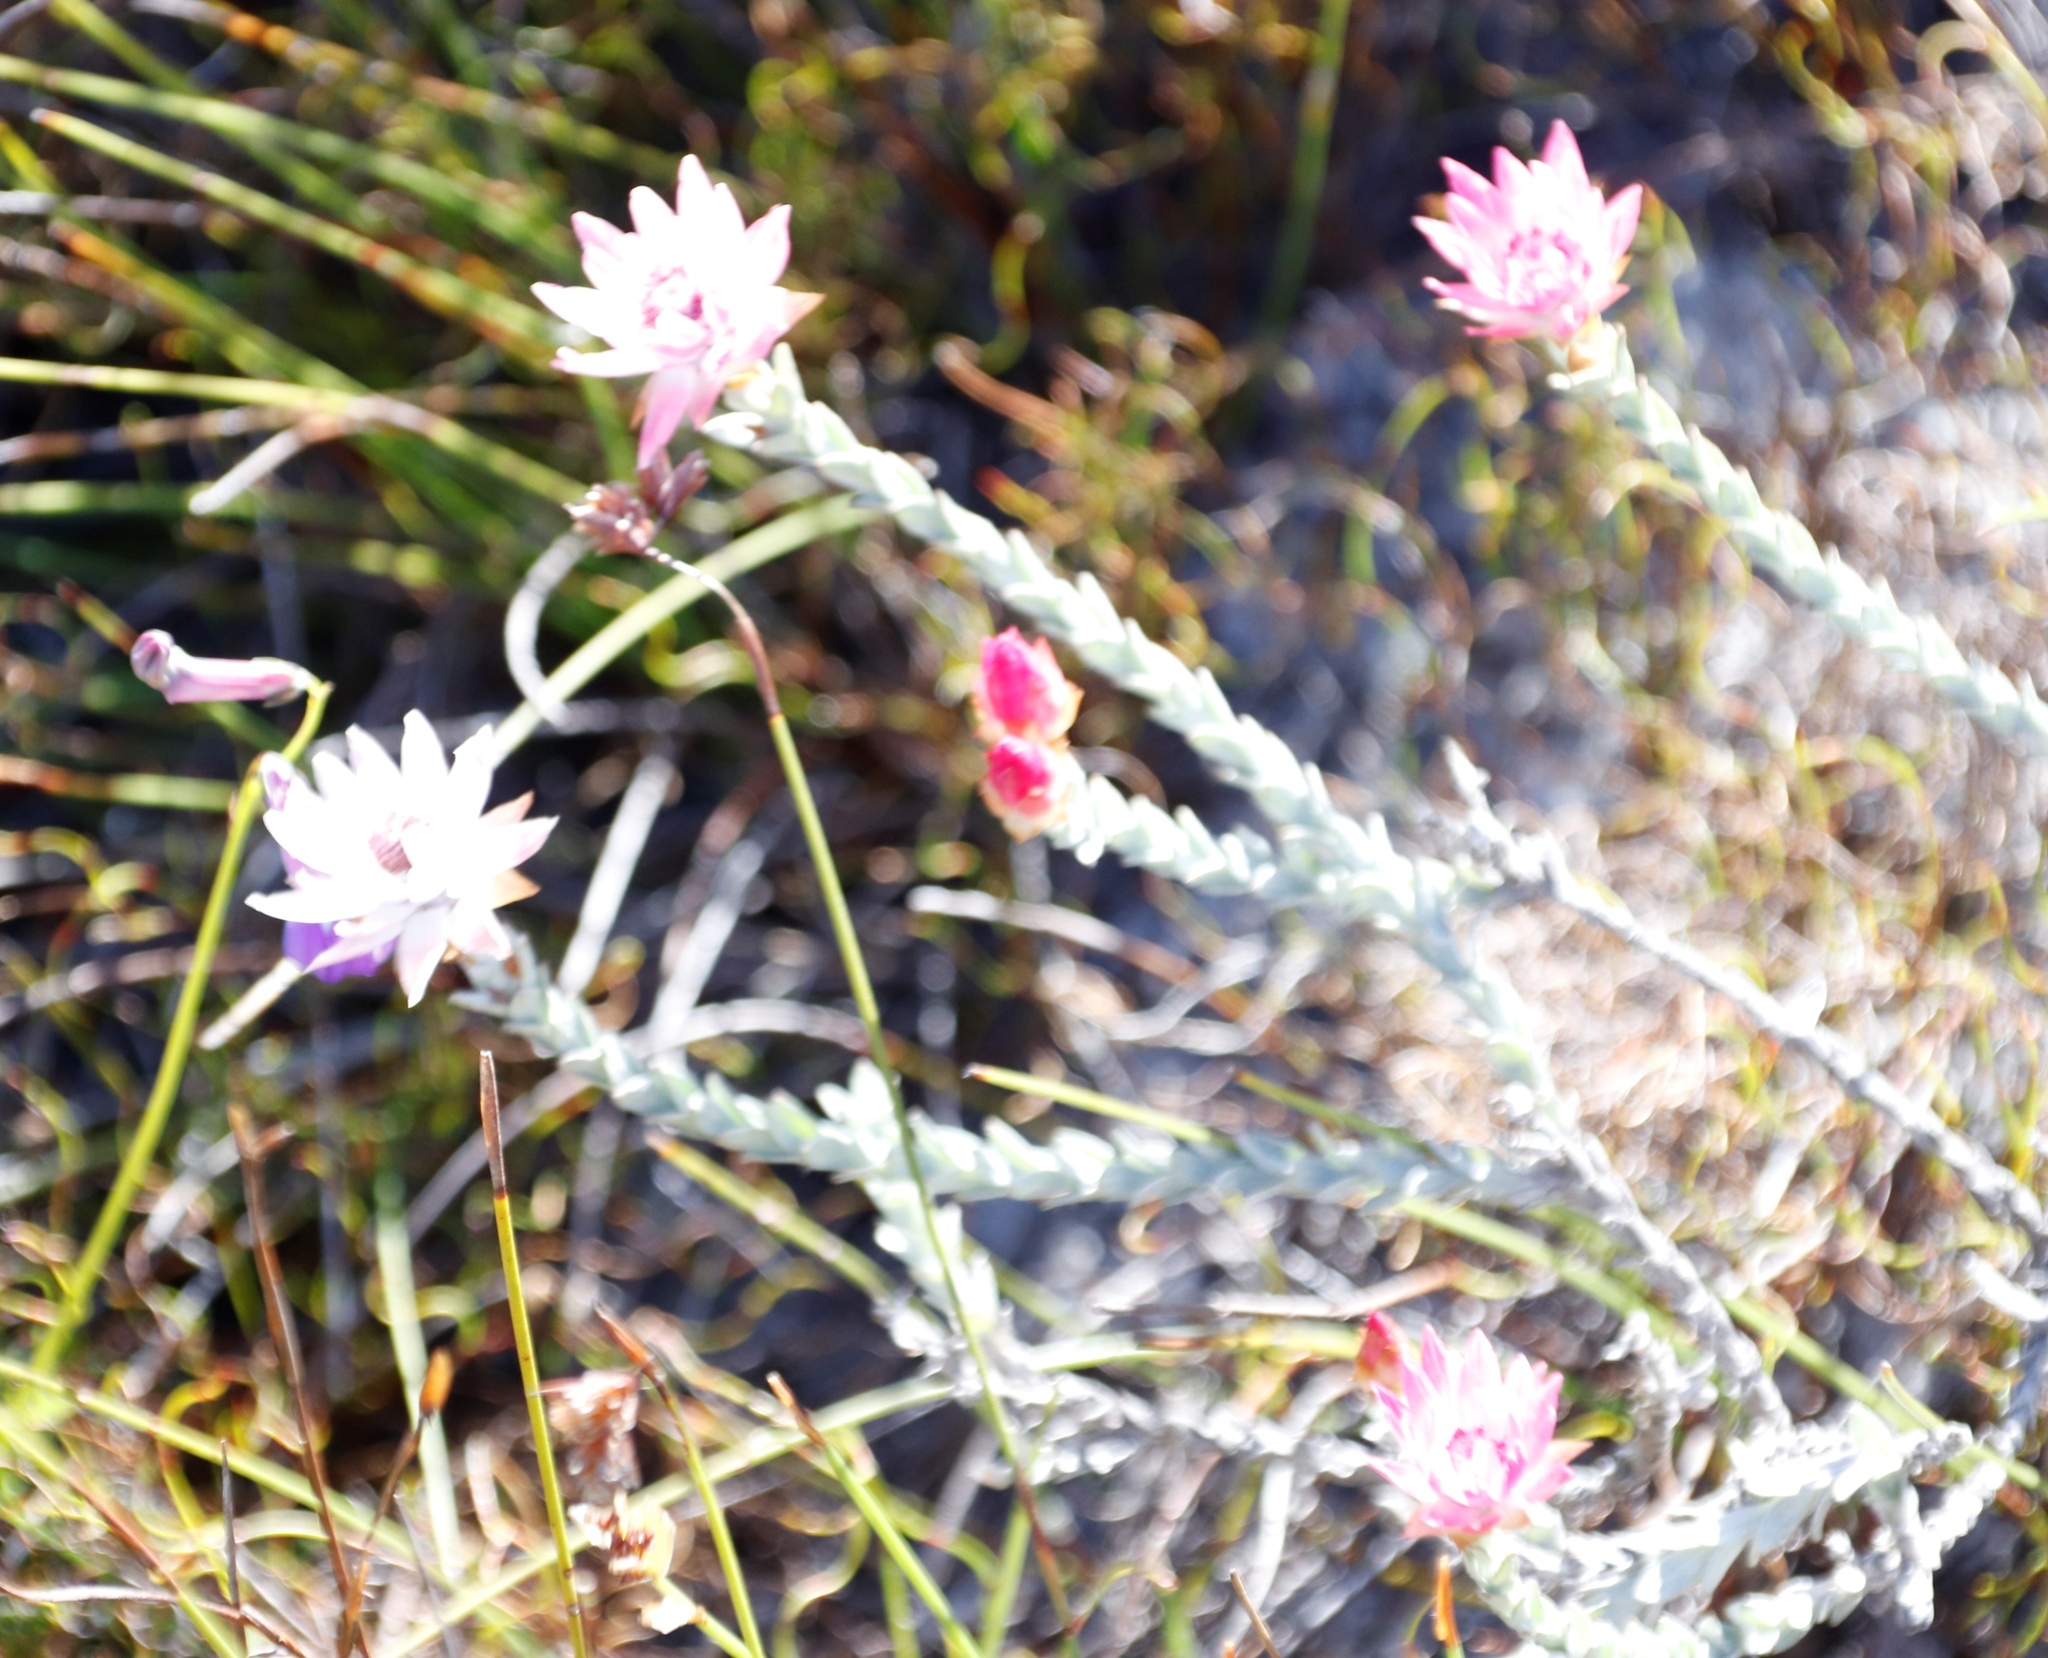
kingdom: Plantae
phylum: Tracheophyta
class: Magnoliopsida
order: Asterales
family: Asteraceae
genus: Syncarpha
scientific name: Syncarpha canescens
